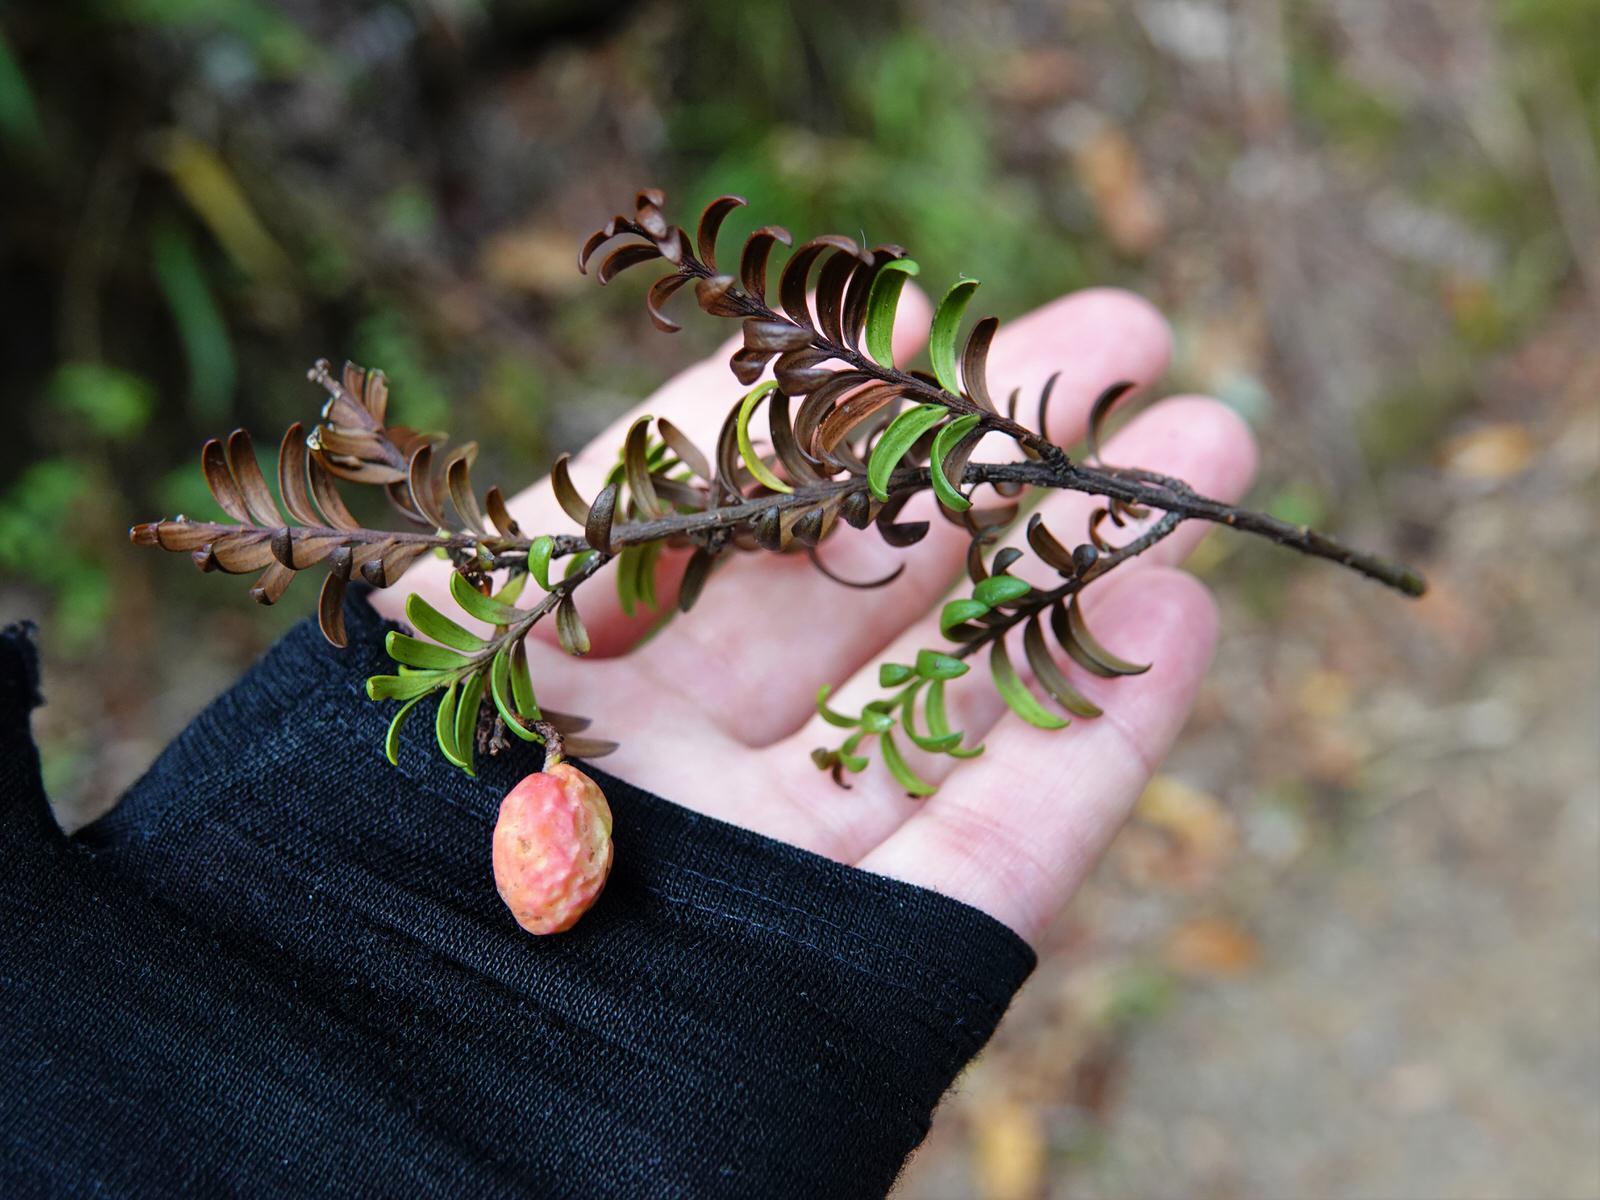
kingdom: Plantae
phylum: Tracheophyta
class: Pinopsida
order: Pinales
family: Podocarpaceae
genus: Prumnopitys
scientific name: Prumnopitys ferruginea
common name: Brown pine
